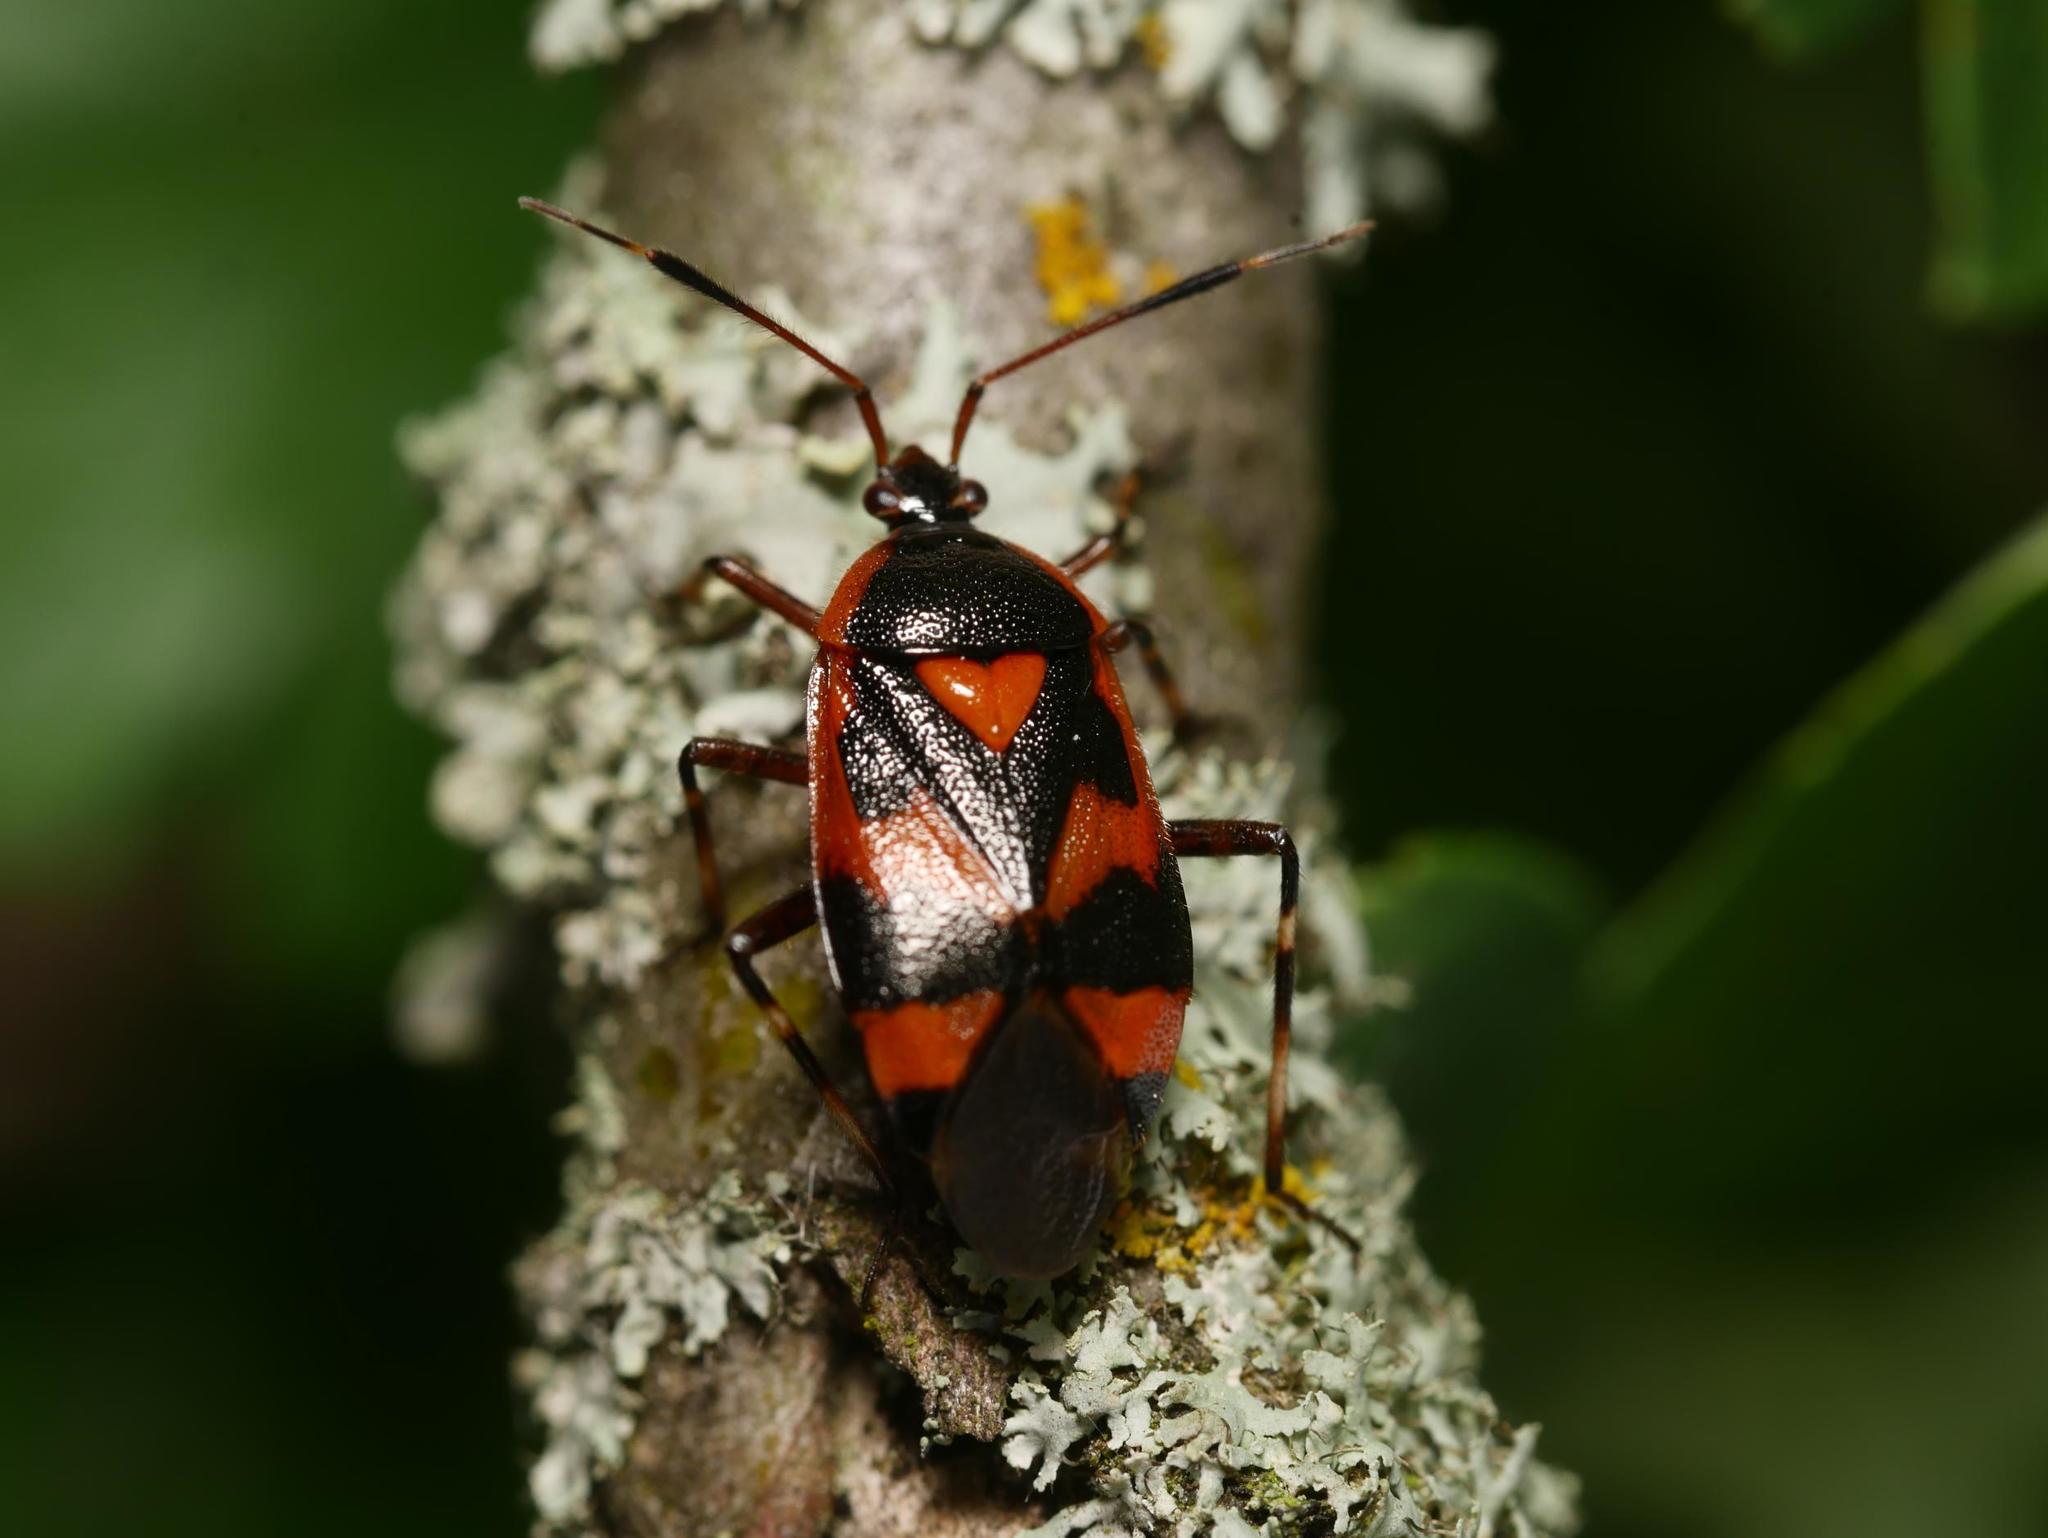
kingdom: Animalia
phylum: Arthropoda
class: Insecta
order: Hemiptera
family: Miridae
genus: Deraeocoris
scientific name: Deraeocoris trifasciatus
